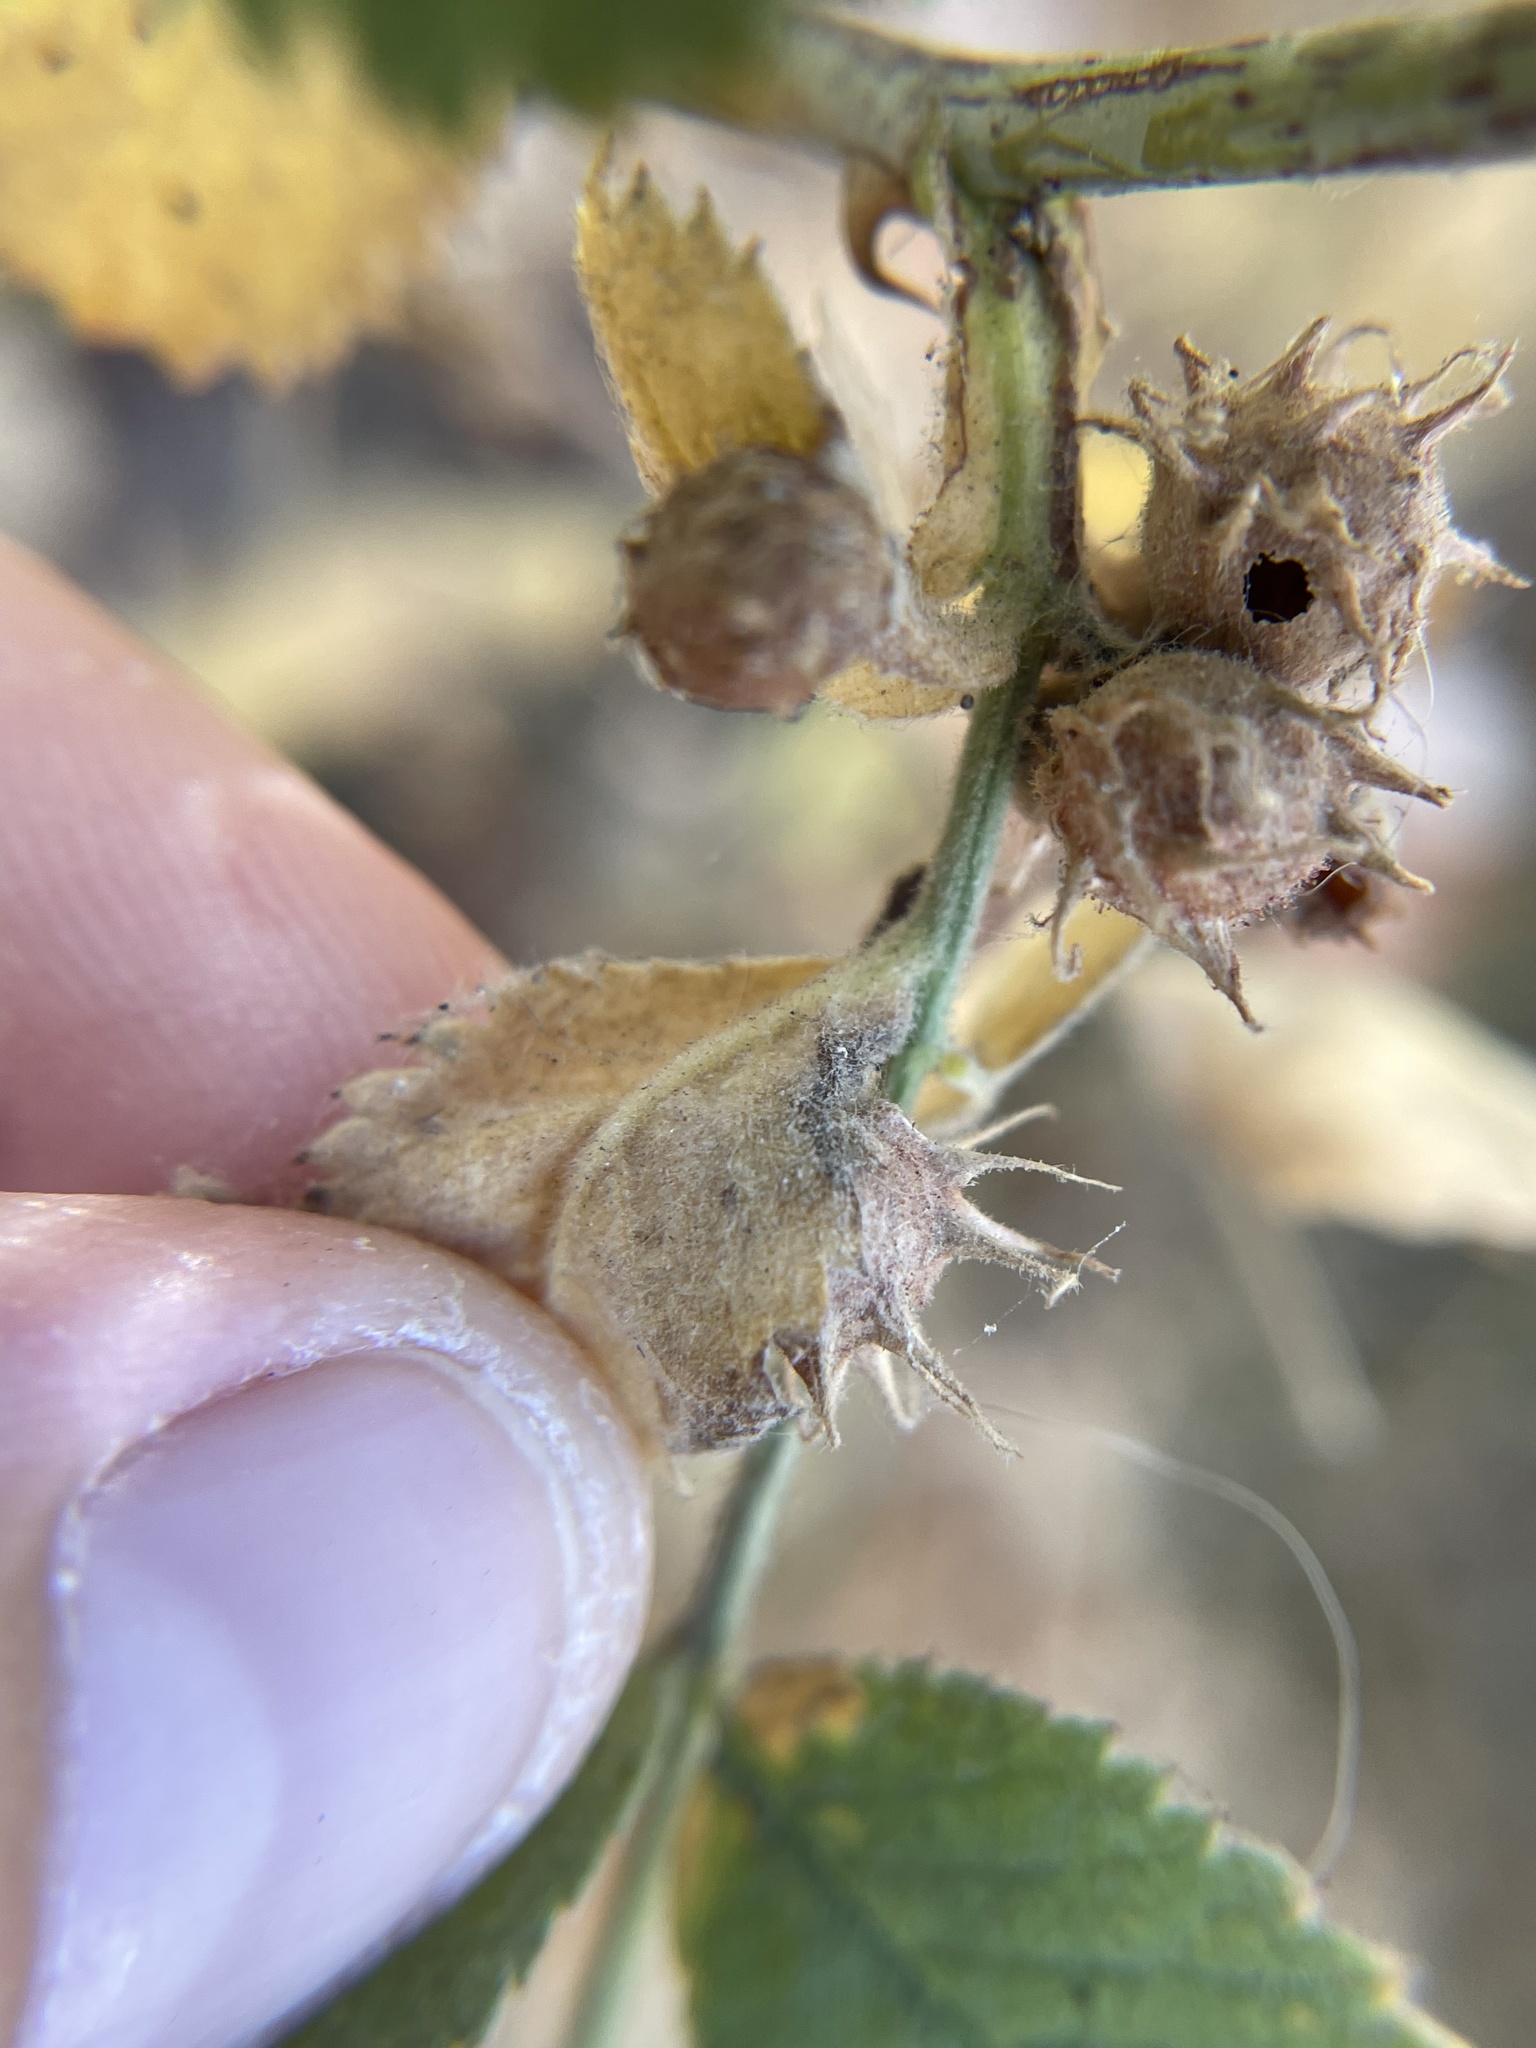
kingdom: Animalia
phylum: Arthropoda
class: Insecta
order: Hymenoptera
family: Cynipidae
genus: Diplolepis
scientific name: Diplolepis polita
